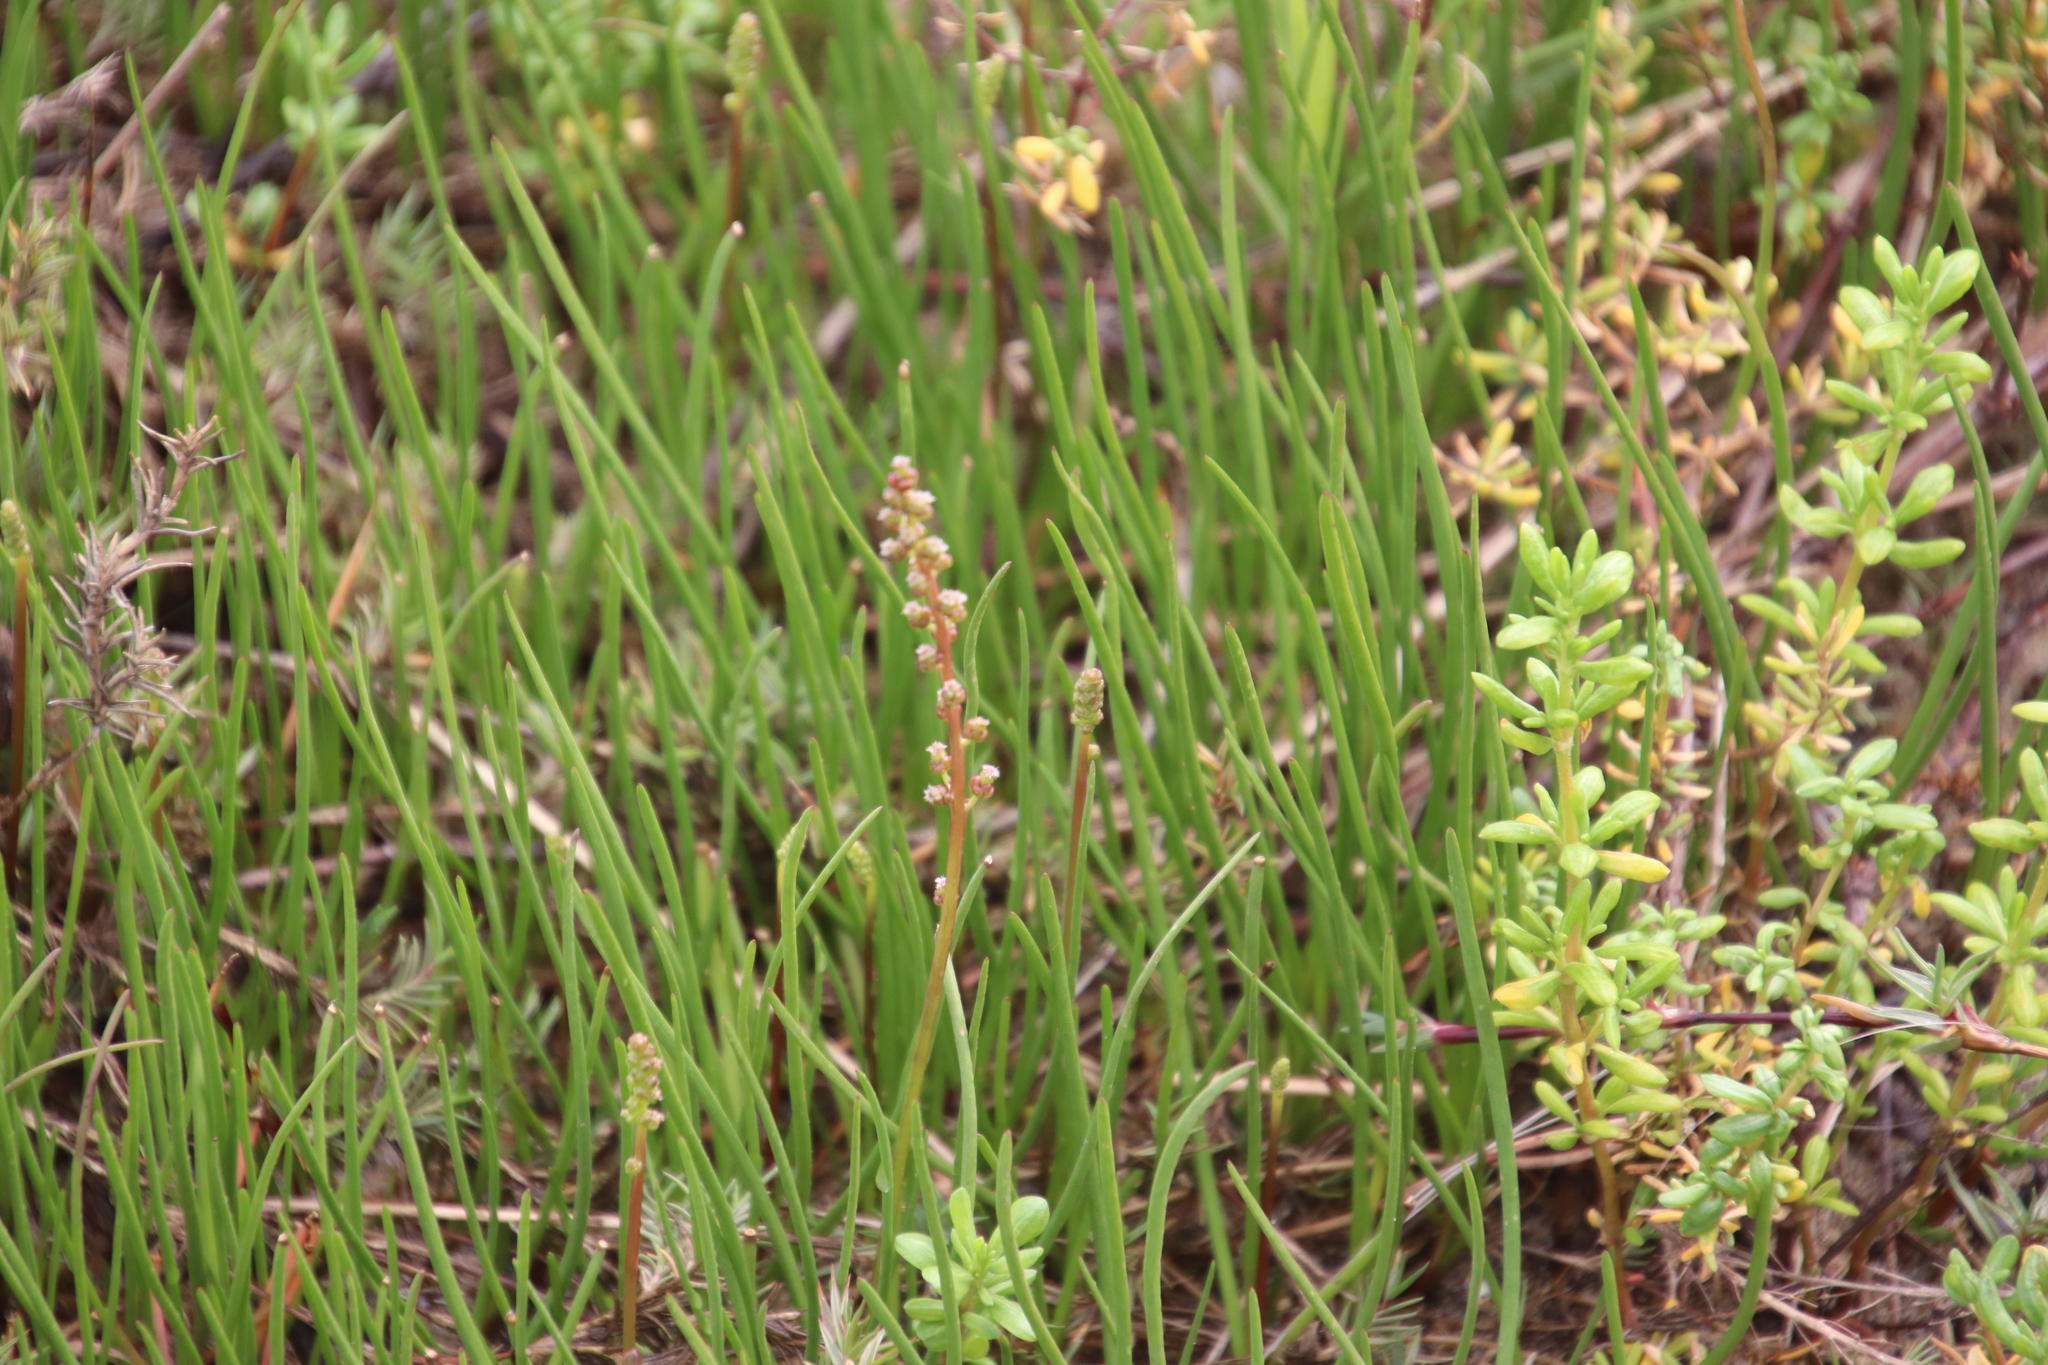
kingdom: Plantae
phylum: Tracheophyta
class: Liliopsida
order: Alismatales
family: Juncaginaceae
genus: Triglochin
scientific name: Triglochin maritima
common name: Sea arrowgrass
